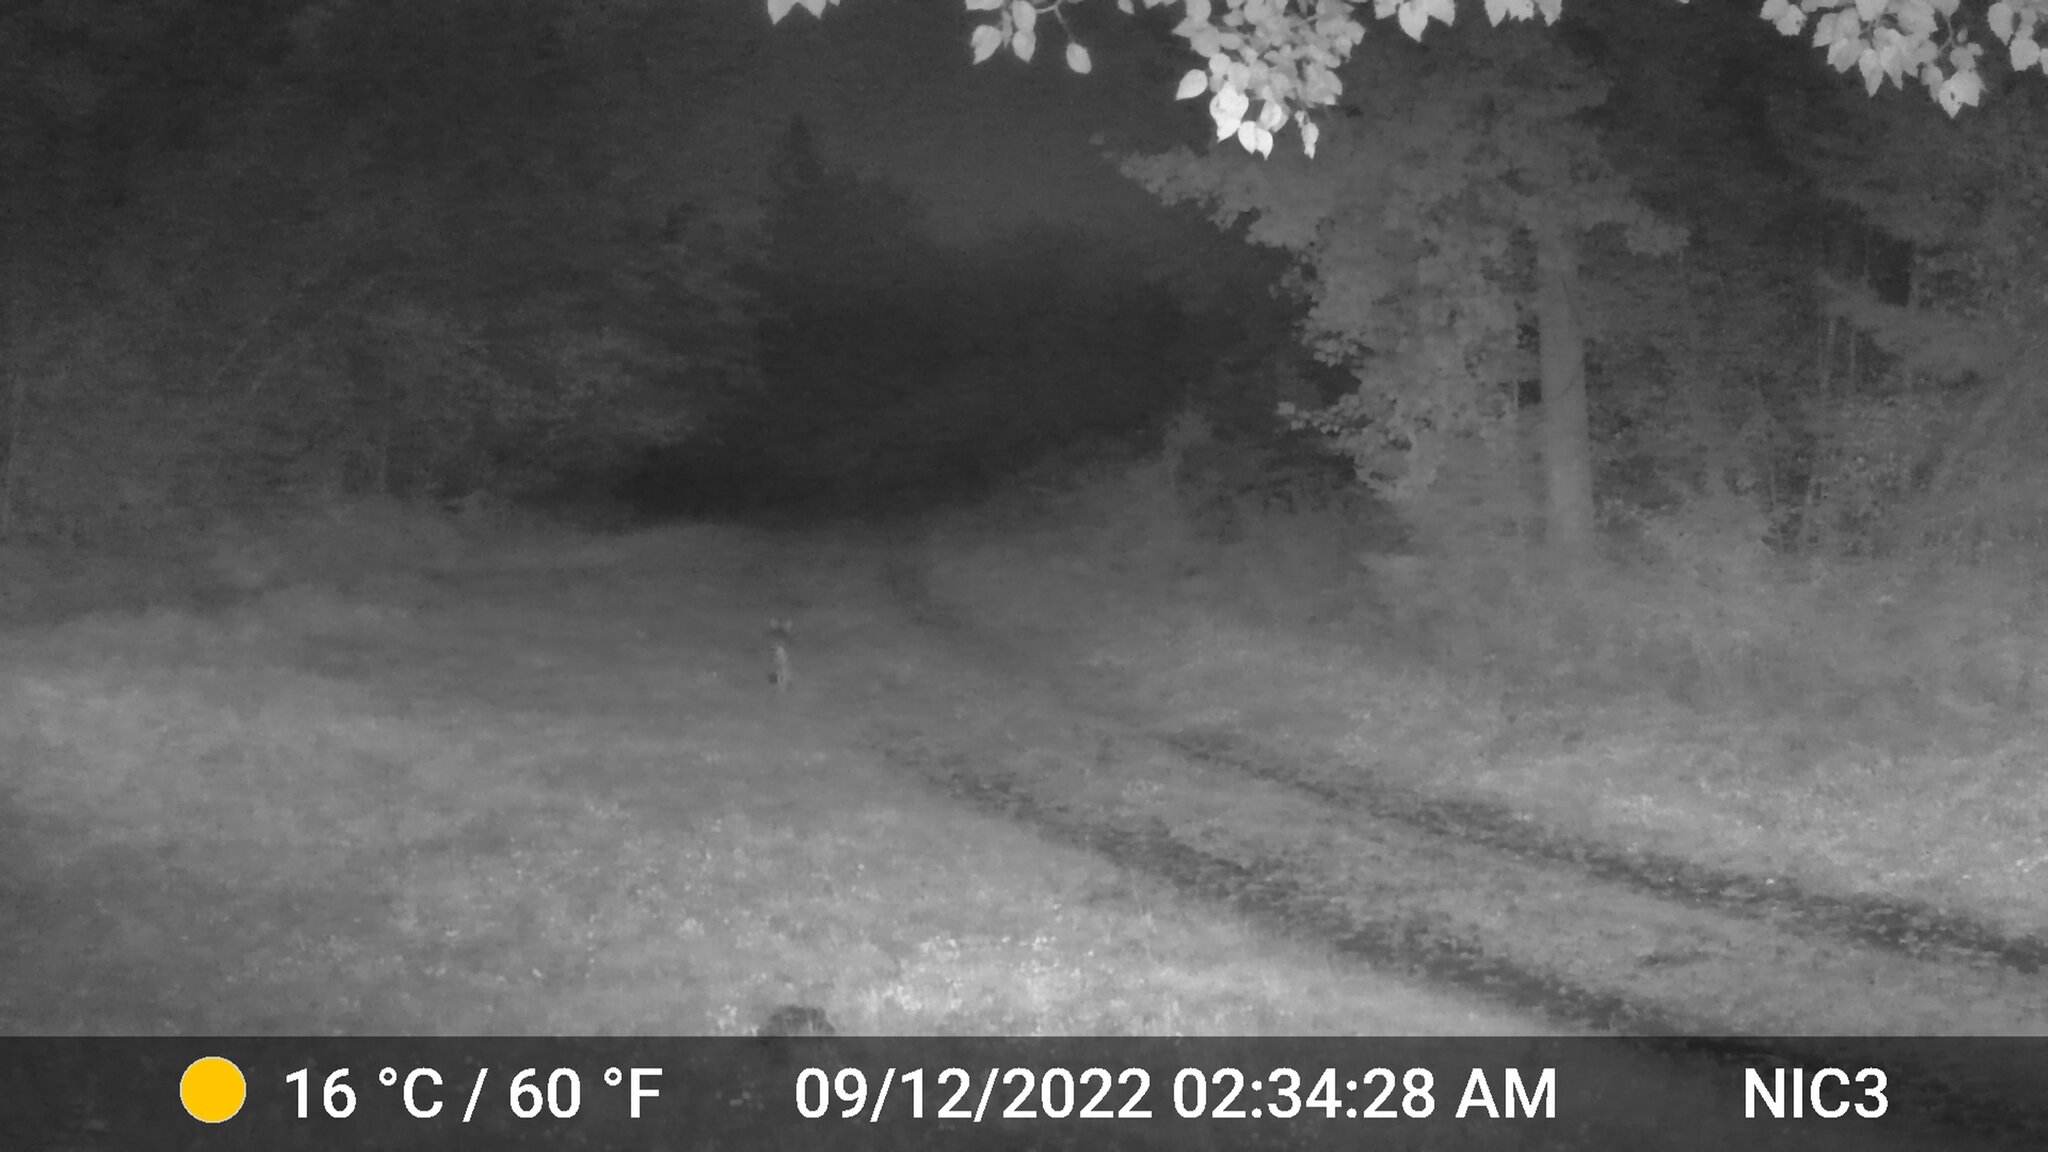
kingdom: Animalia
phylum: Chordata
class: Mammalia
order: Carnivora
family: Canidae
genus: Canis
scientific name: Canis latrans
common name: Coyote
